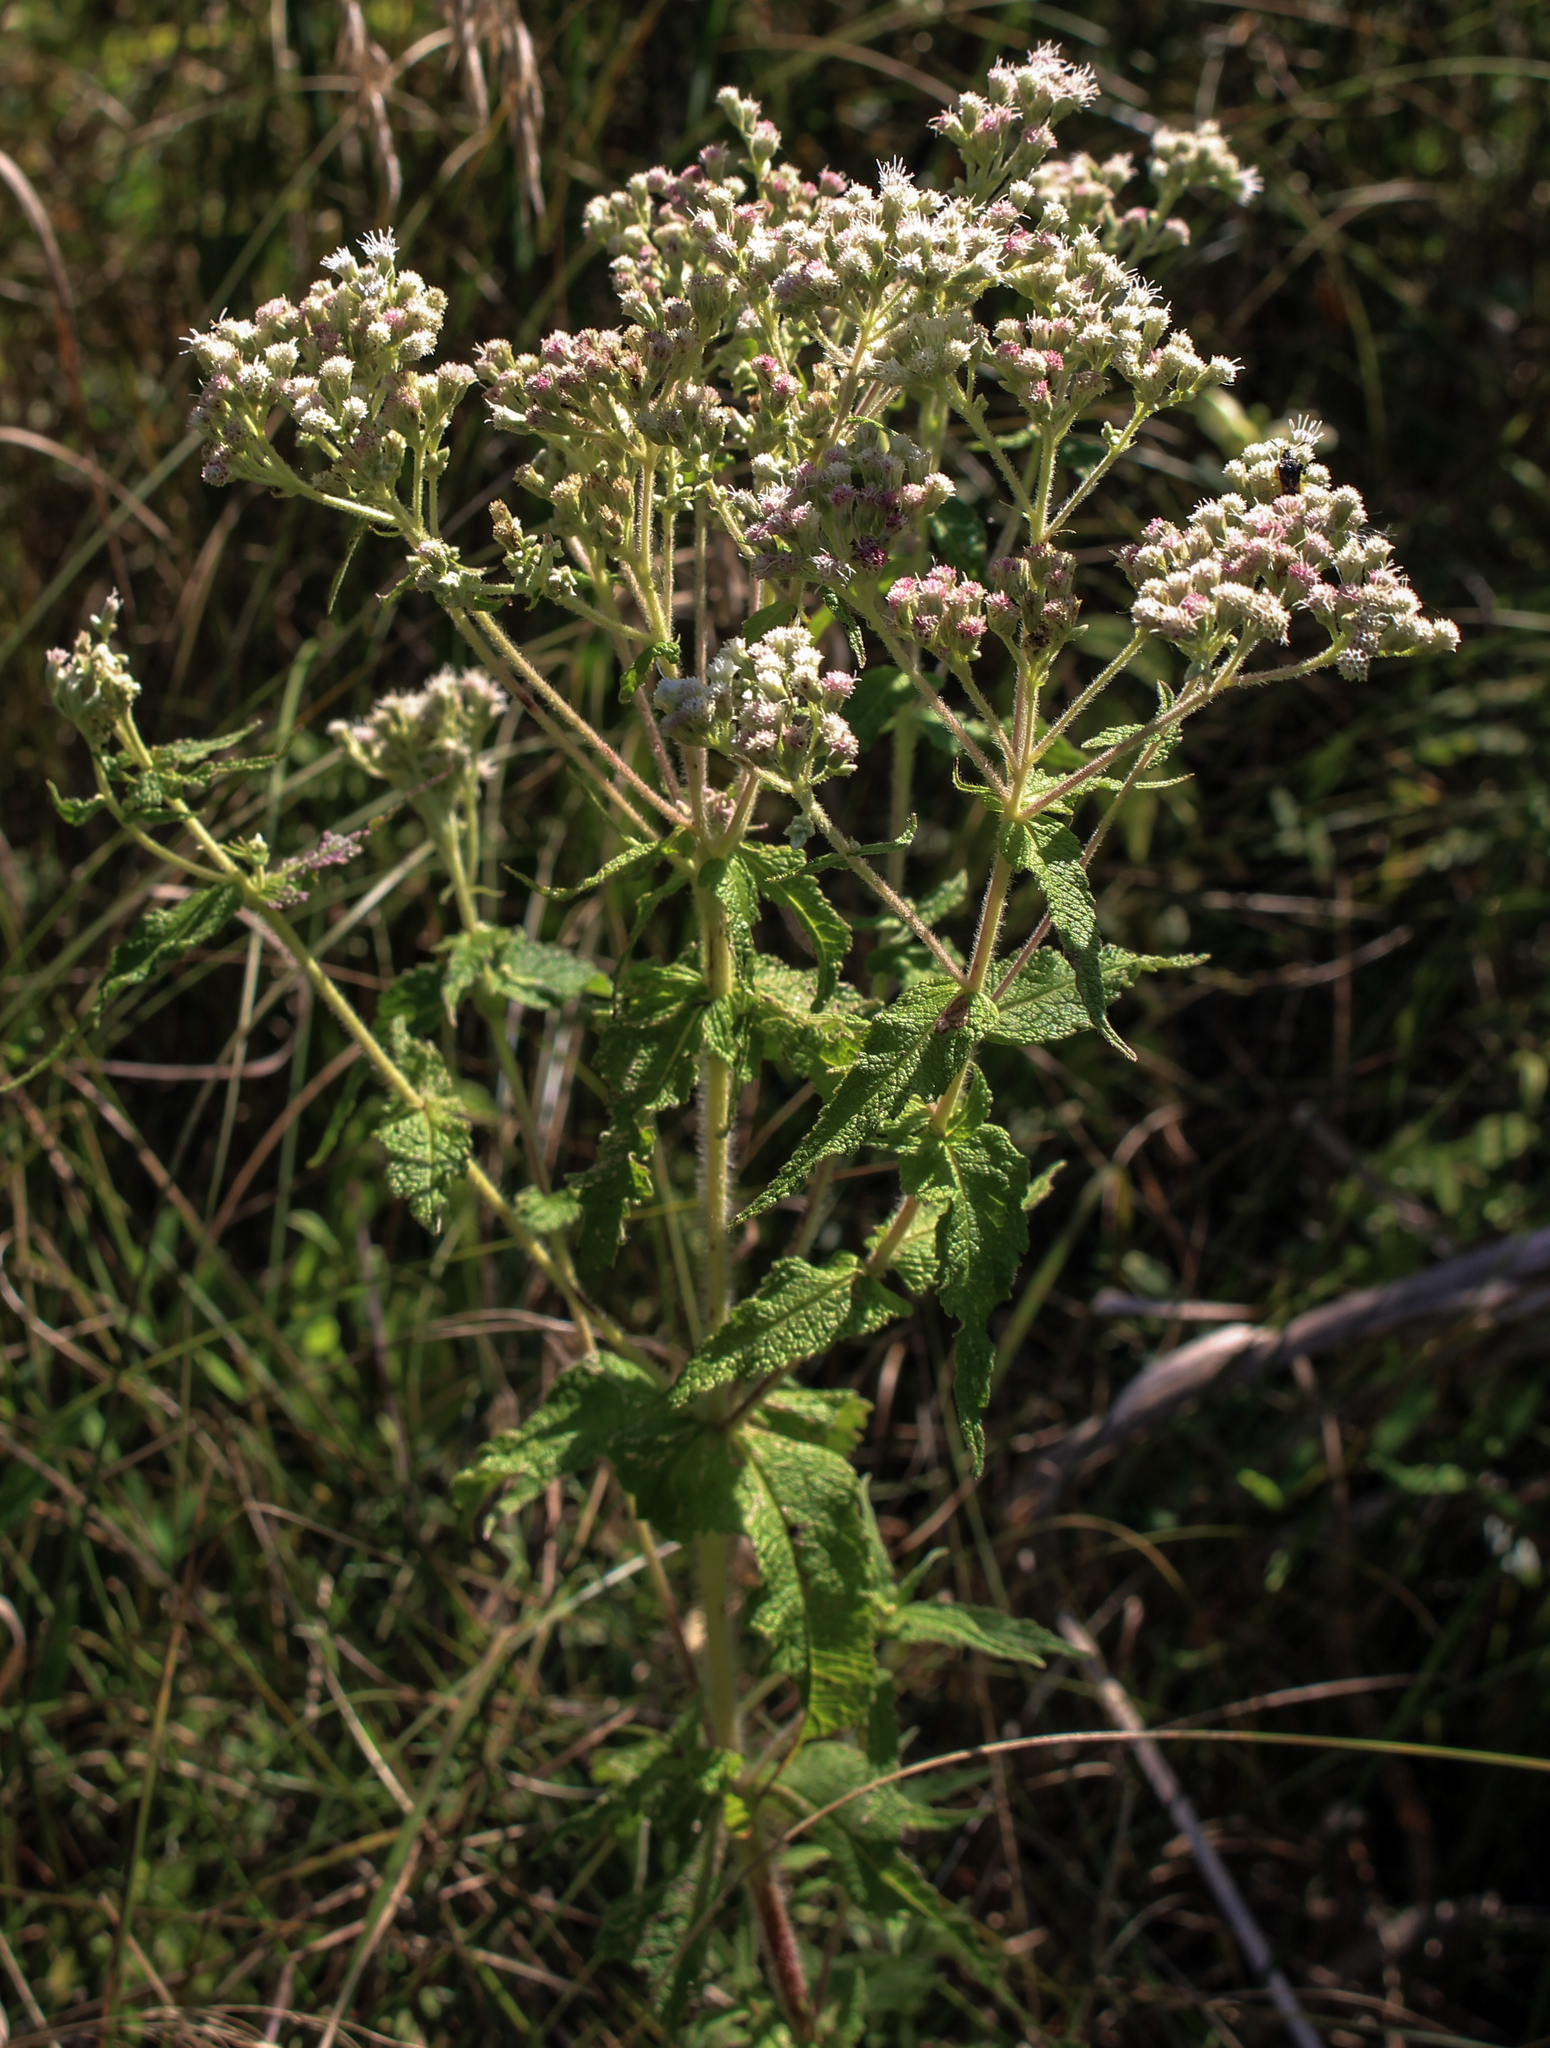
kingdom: Plantae
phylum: Tracheophyta
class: Magnoliopsida
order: Asterales
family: Asteraceae
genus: Eupatorium
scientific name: Eupatorium perfoliatum
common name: Boneset
